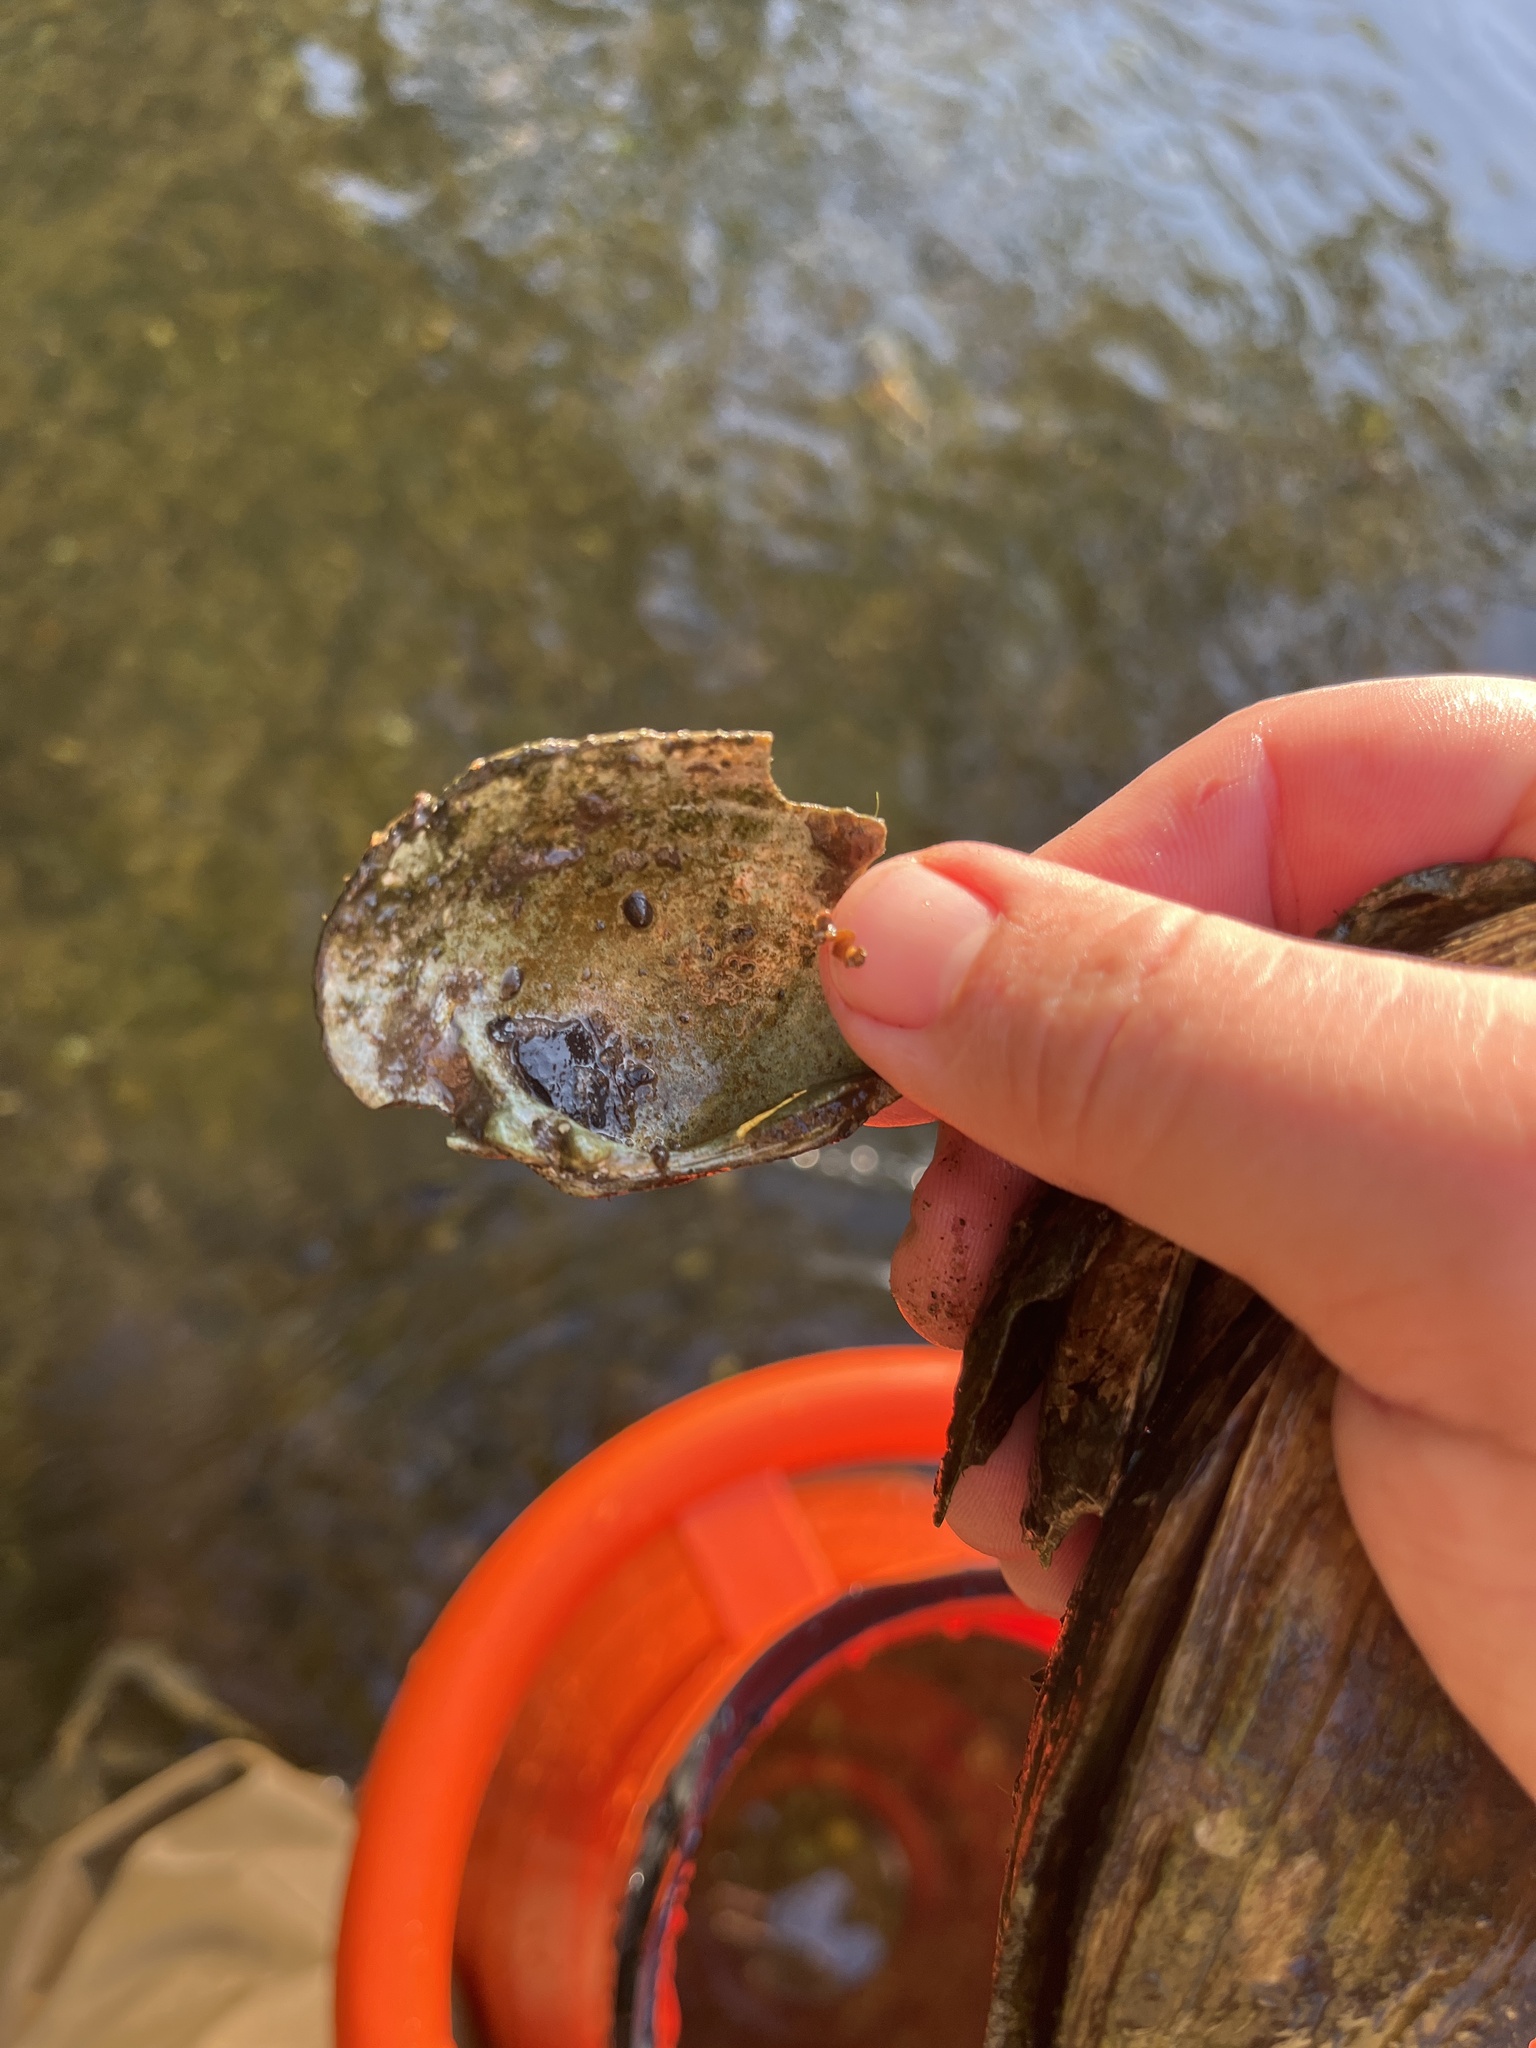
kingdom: Animalia
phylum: Mollusca
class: Bivalvia
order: Unionida
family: Unionidae
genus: Lampsilis
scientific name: Lampsilis fasciola
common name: Wavyrayed lampmussel
